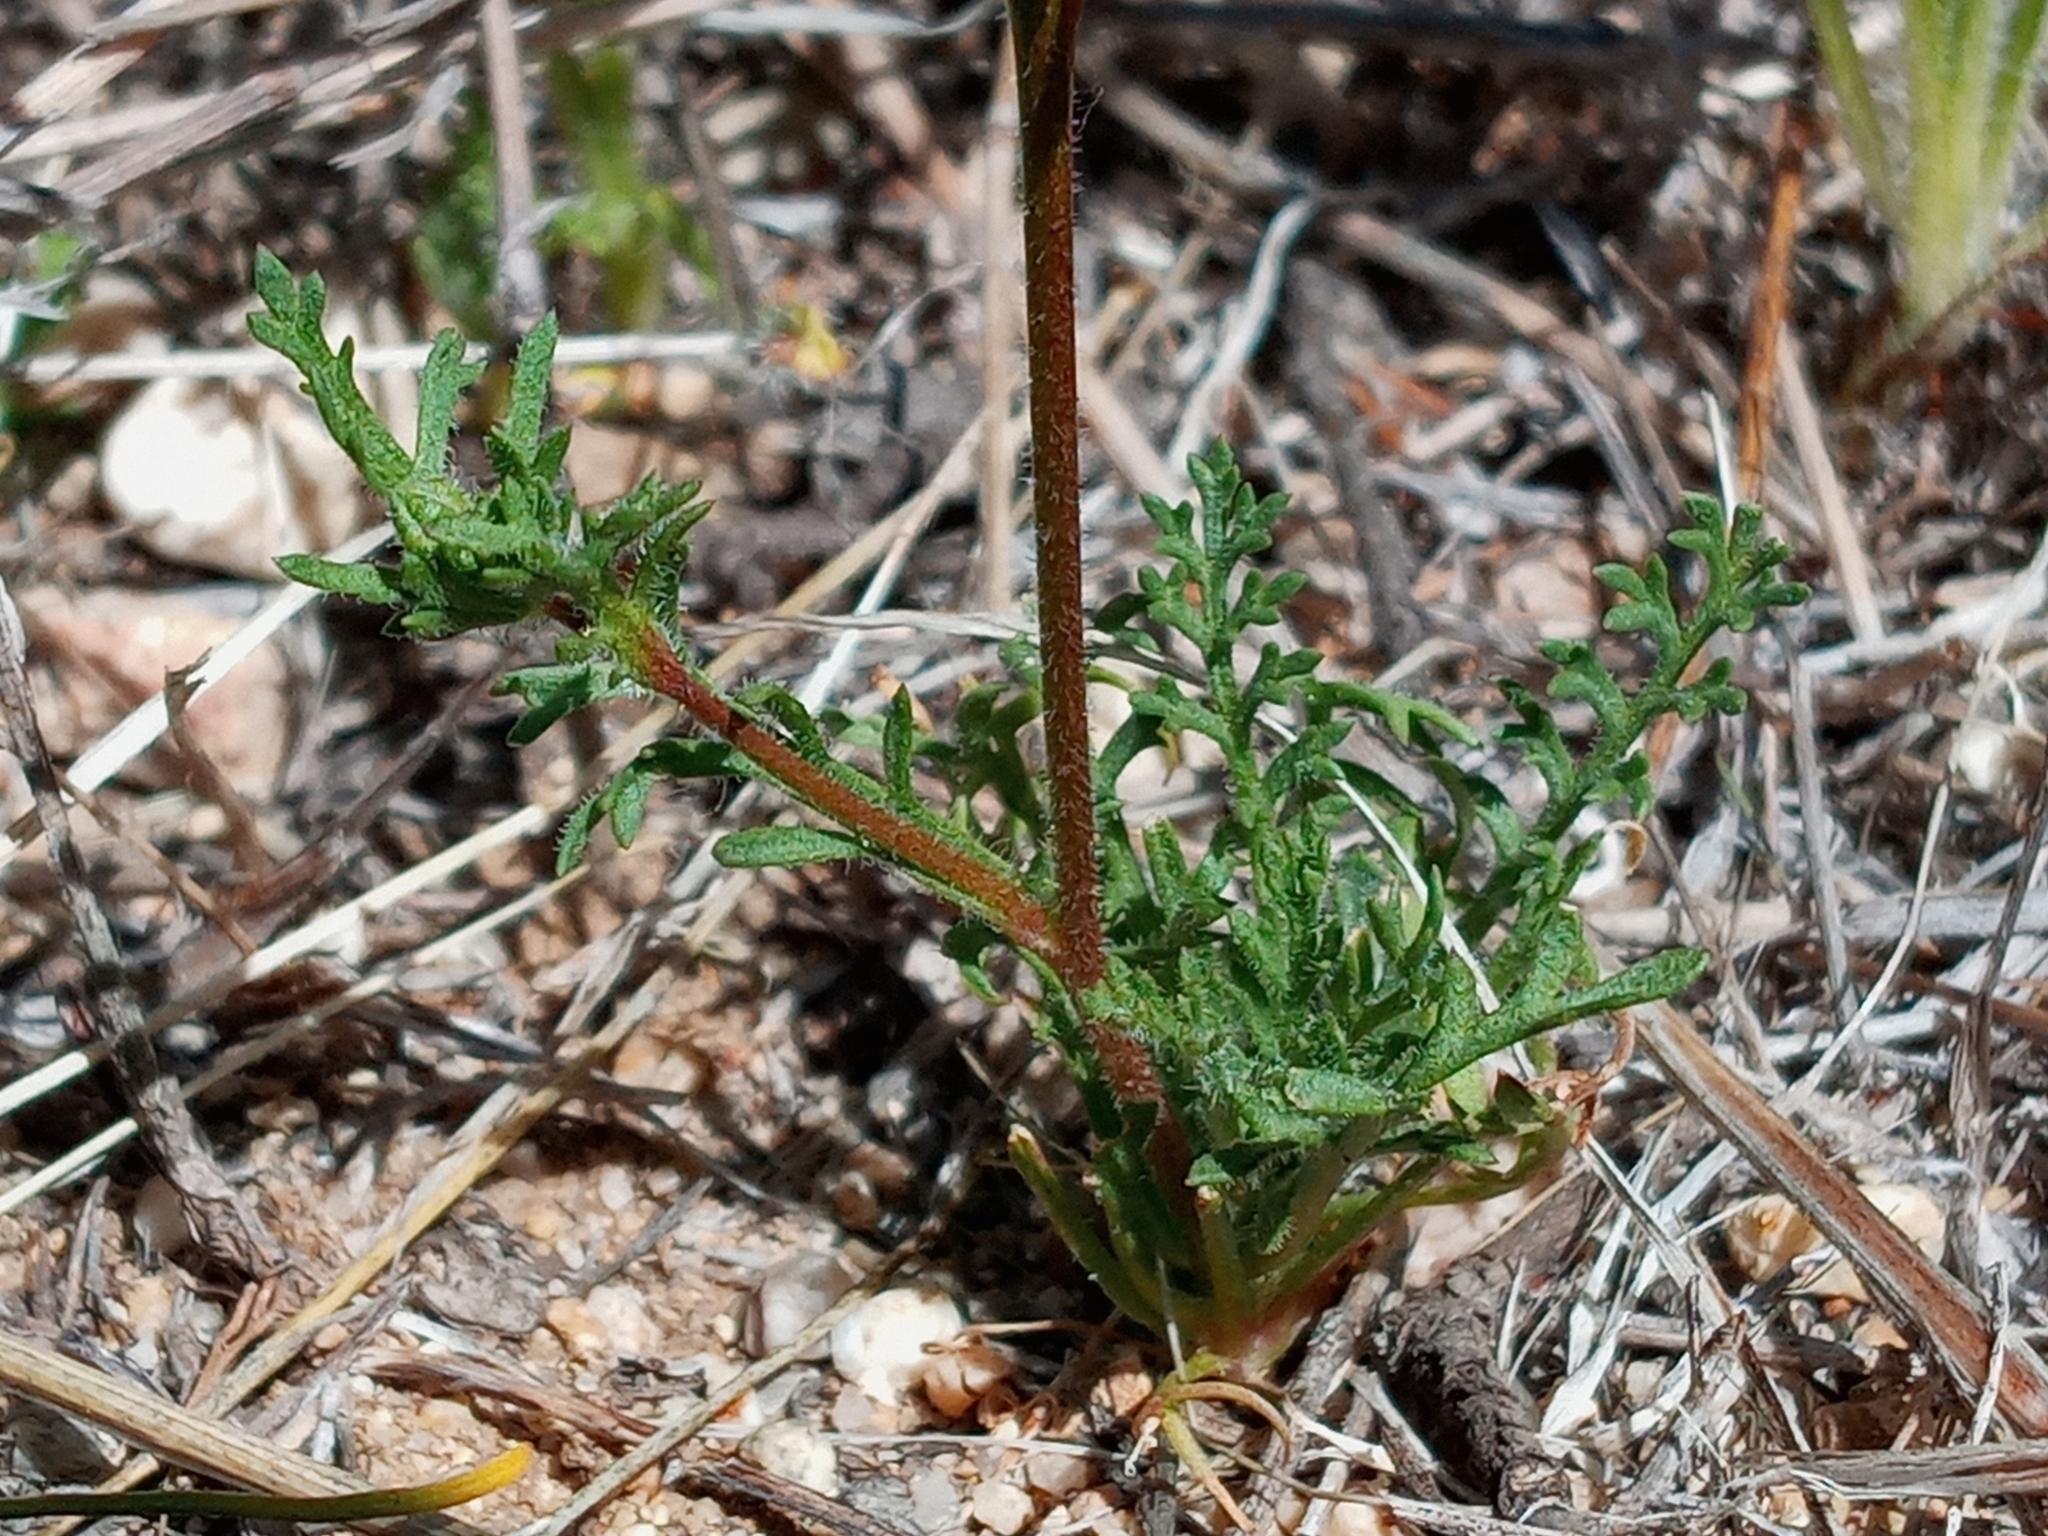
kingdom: Plantae
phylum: Tracheophyta
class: Magnoliopsida
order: Ericales
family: Polemoniaceae
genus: Gilia
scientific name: Gilia angelensis
